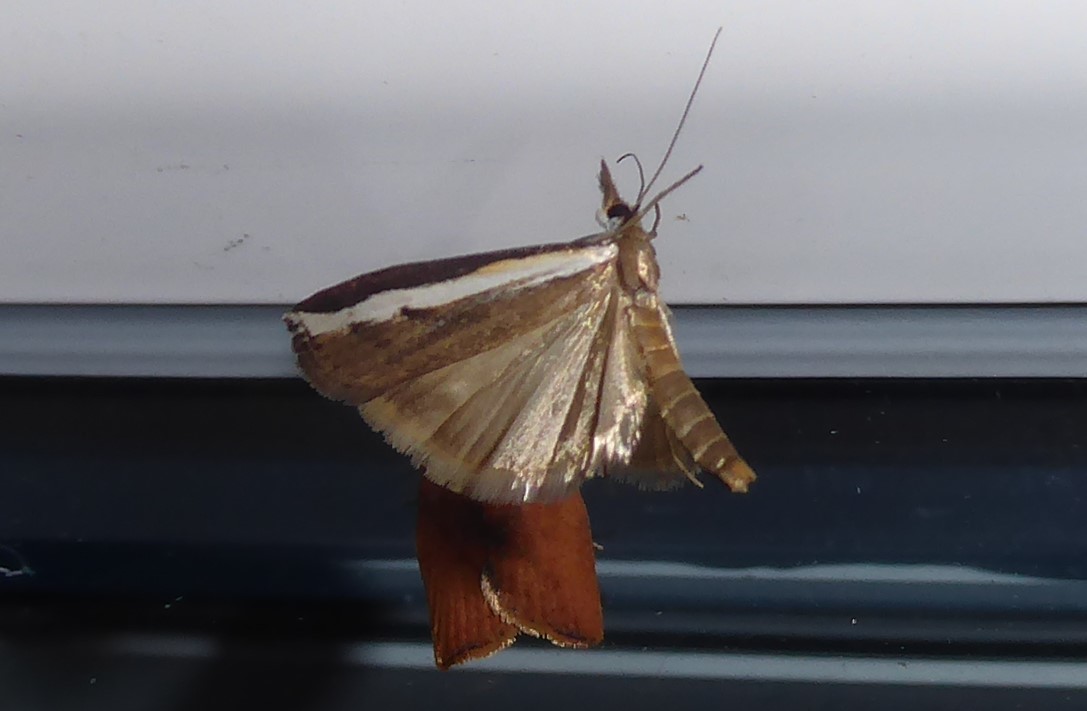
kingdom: Animalia
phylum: Arthropoda
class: Insecta
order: Lepidoptera
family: Crambidae
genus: Orocrambus
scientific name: Orocrambus flexuosellus
